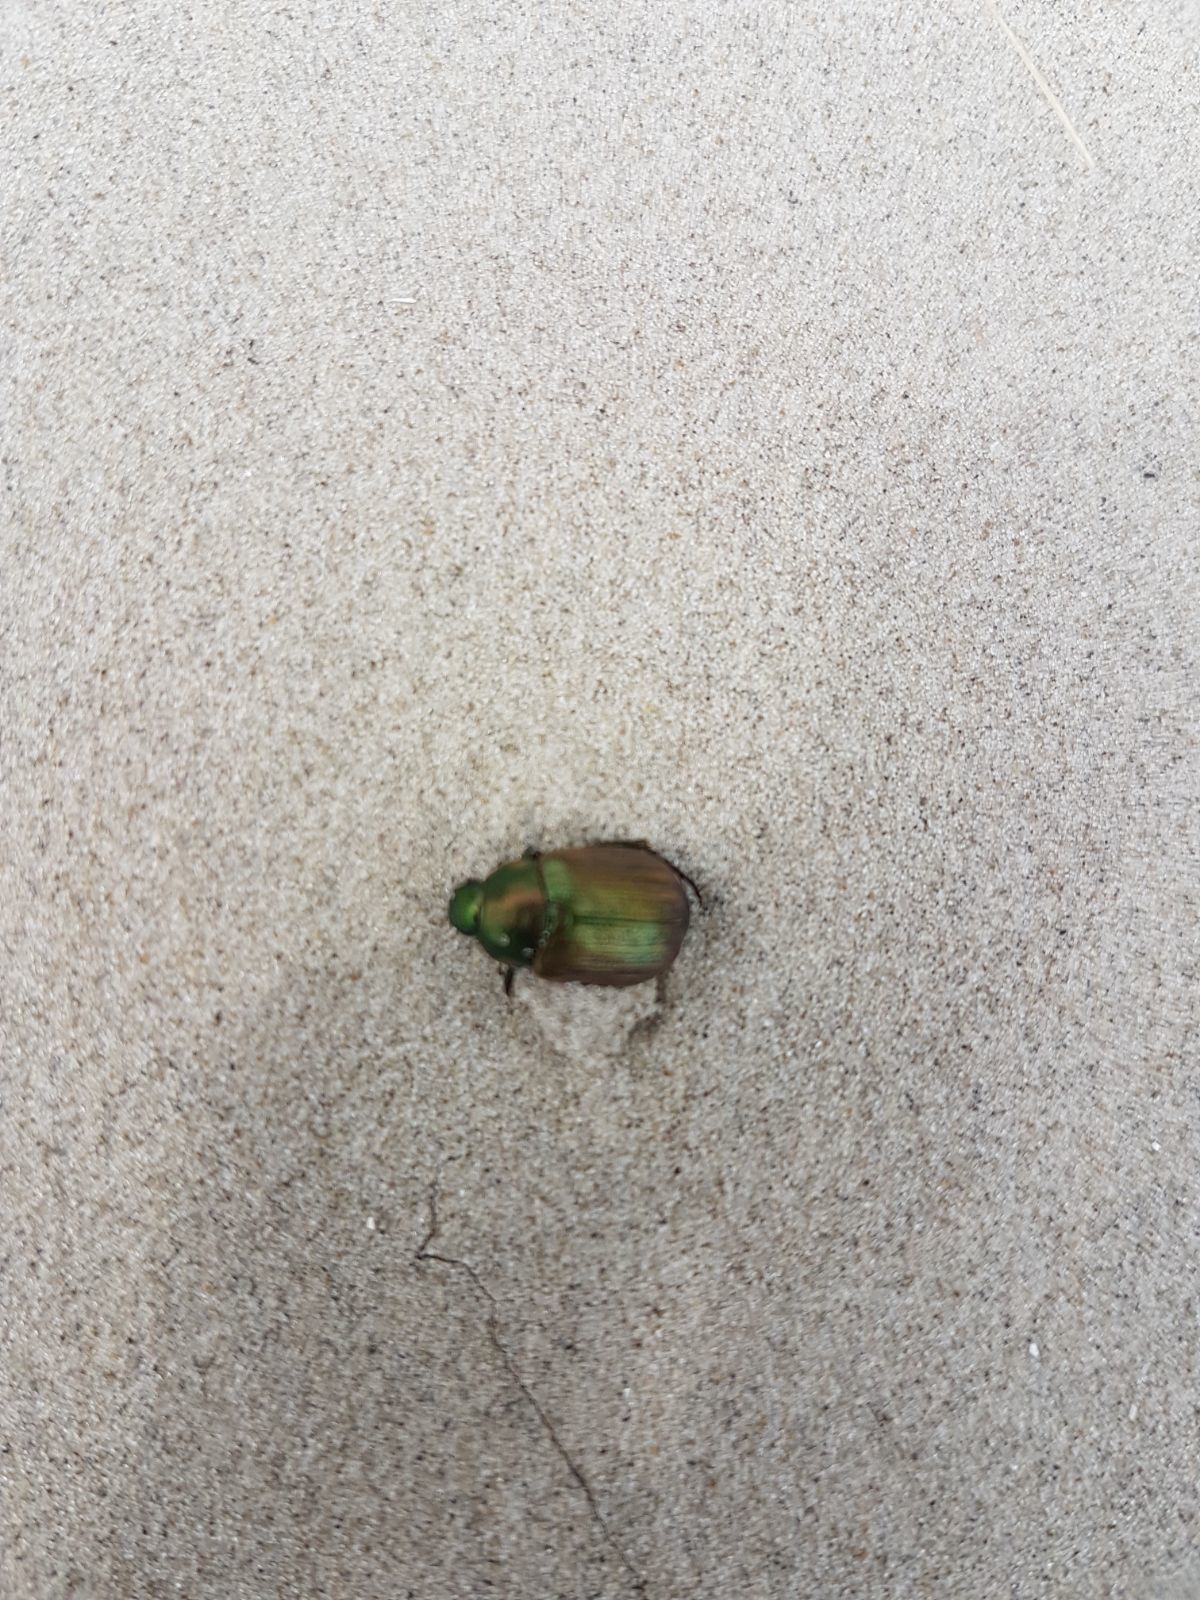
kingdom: Animalia
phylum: Arthropoda
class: Insecta
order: Coleoptera
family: Scarabaeidae
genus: Anomala
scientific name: Anomala dubia
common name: Dune chafer
